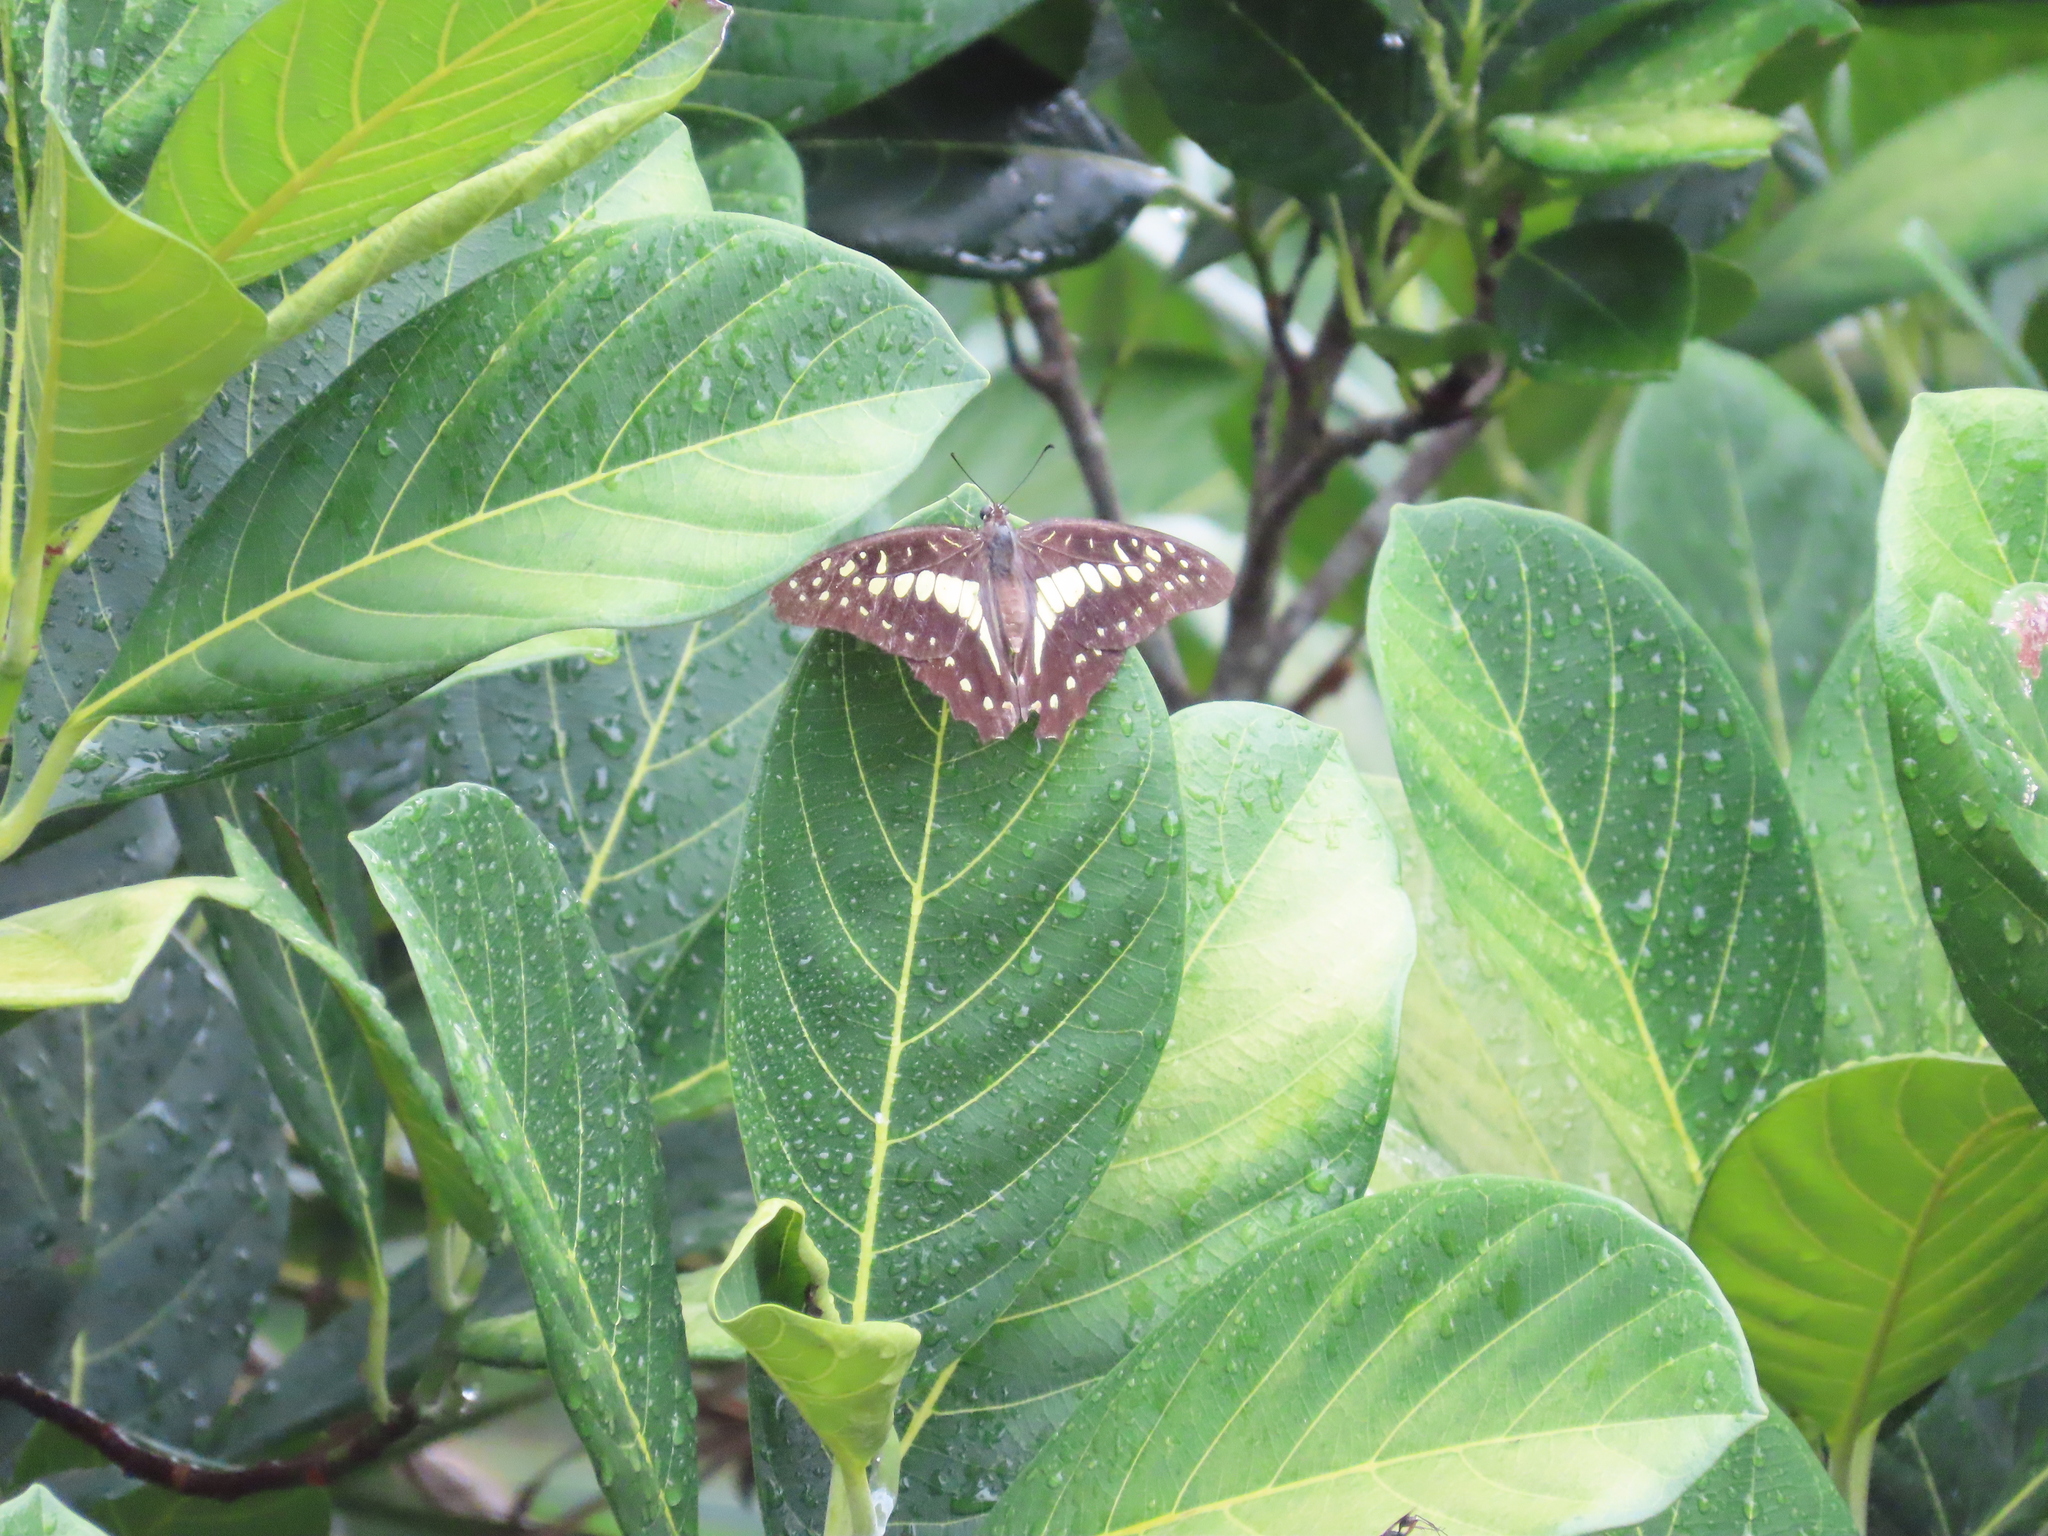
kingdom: Animalia
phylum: Arthropoda
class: Insecta
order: Lepidoptera
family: Papilionidae
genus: Graphium
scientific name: Graphium doson
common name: Common jay
